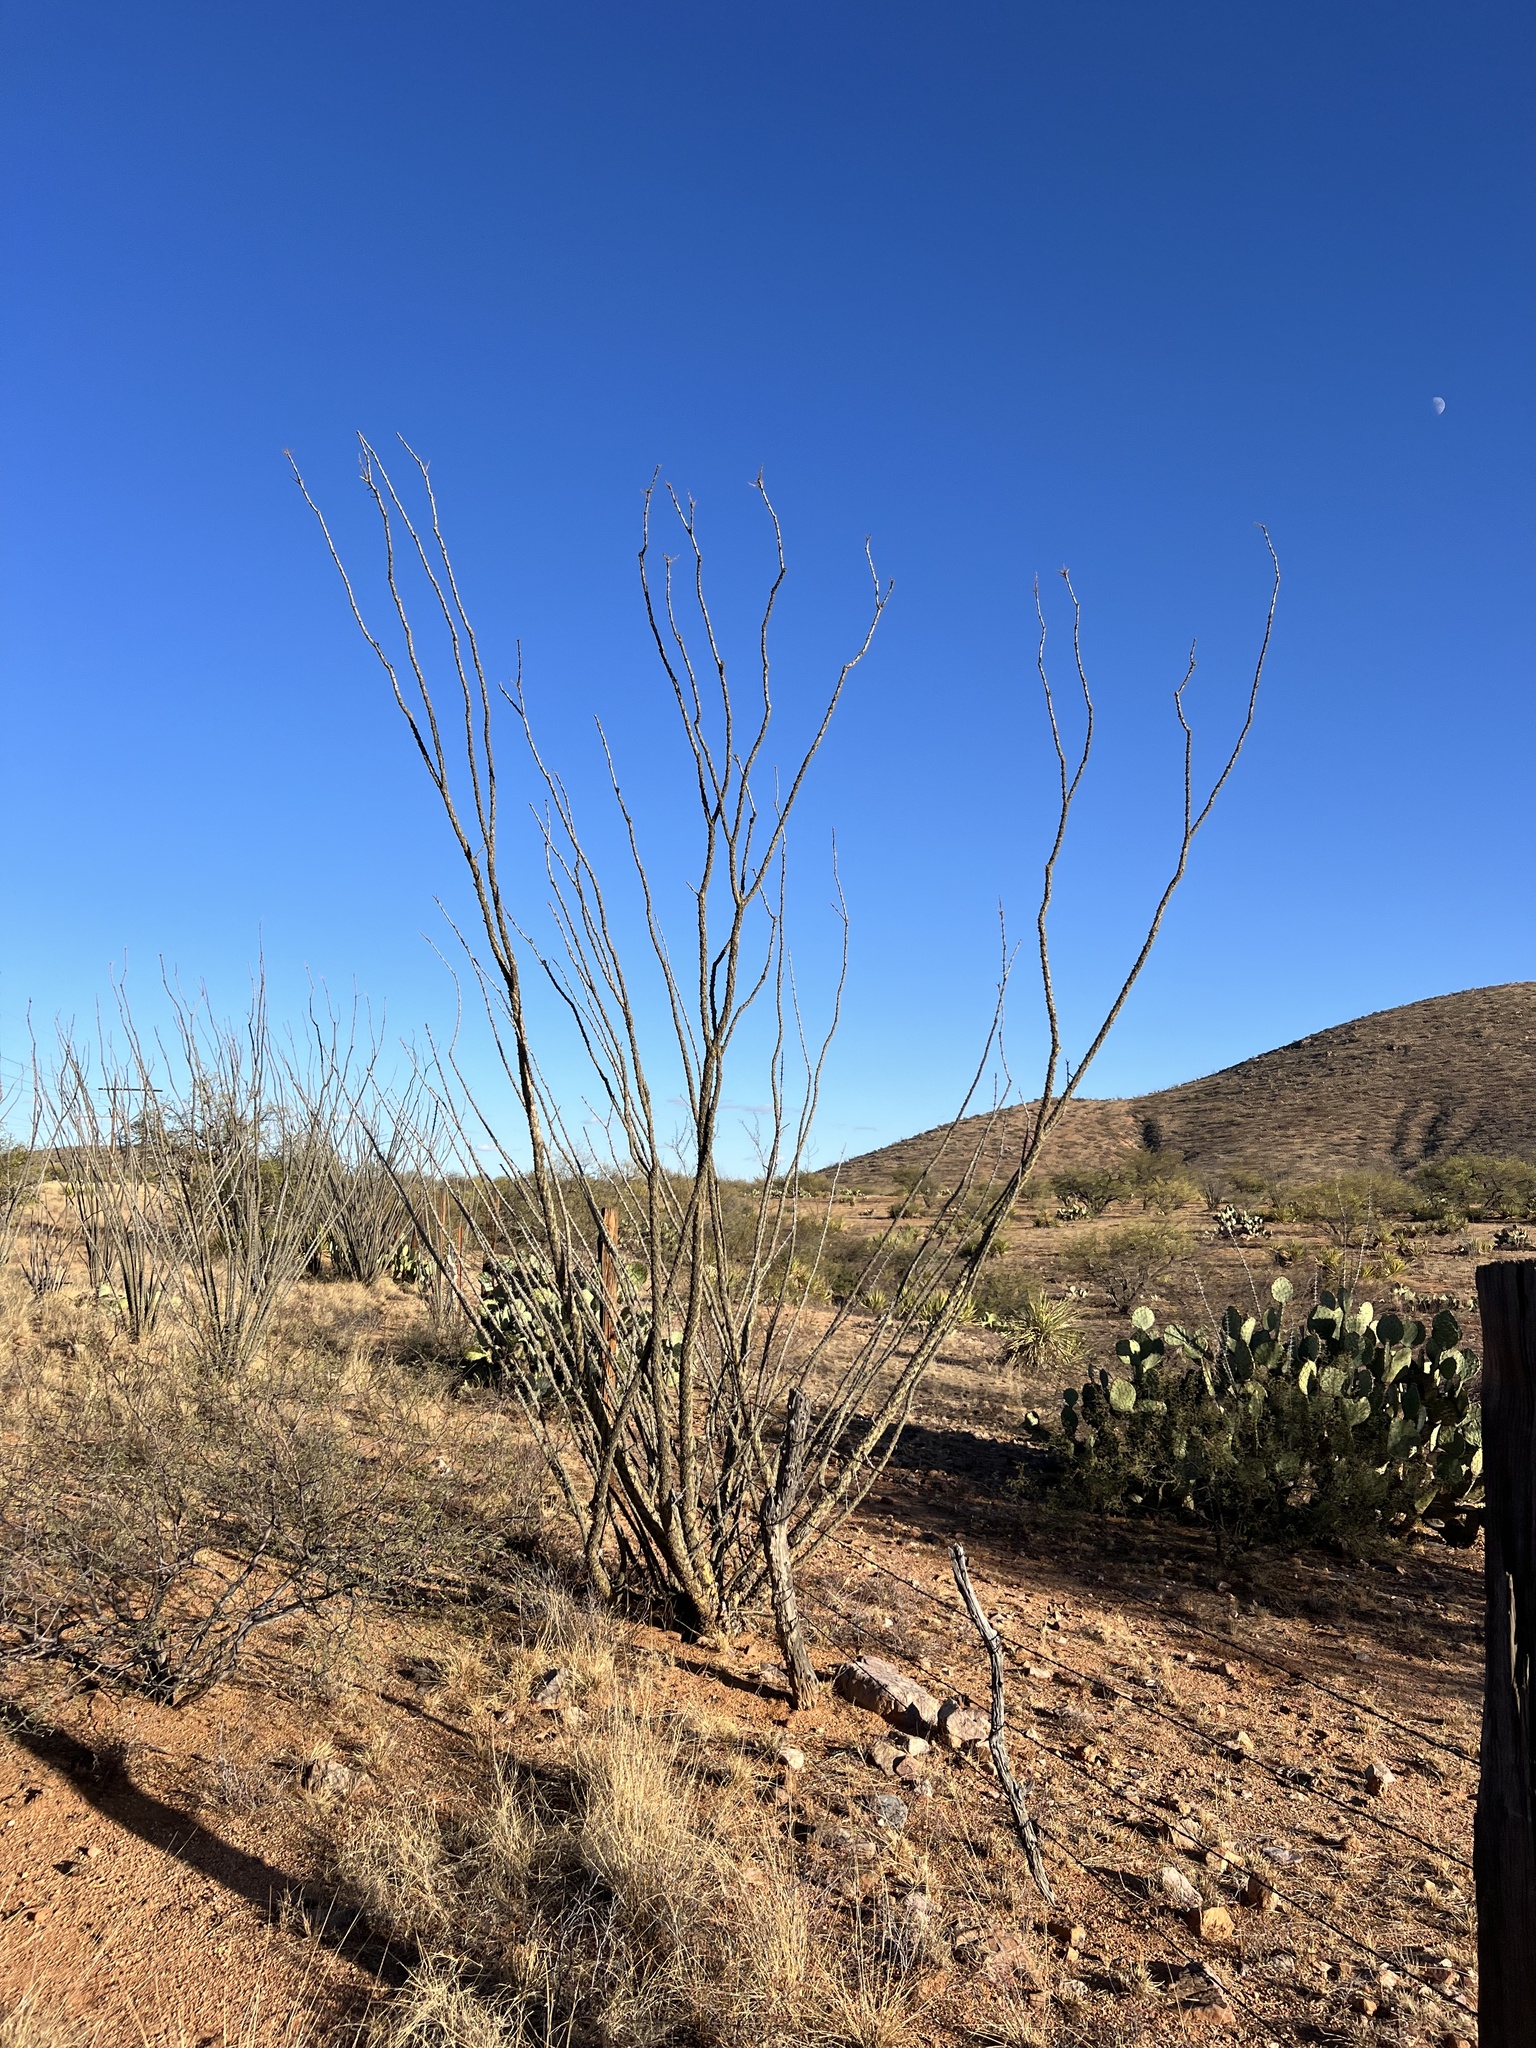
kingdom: Plantae
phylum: Tracheophyta
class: Magnoliopsida
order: Ericales
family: Fouquieriaceae
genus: Fouquieria
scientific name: Fouquieria splendens
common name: Vine-cactus
